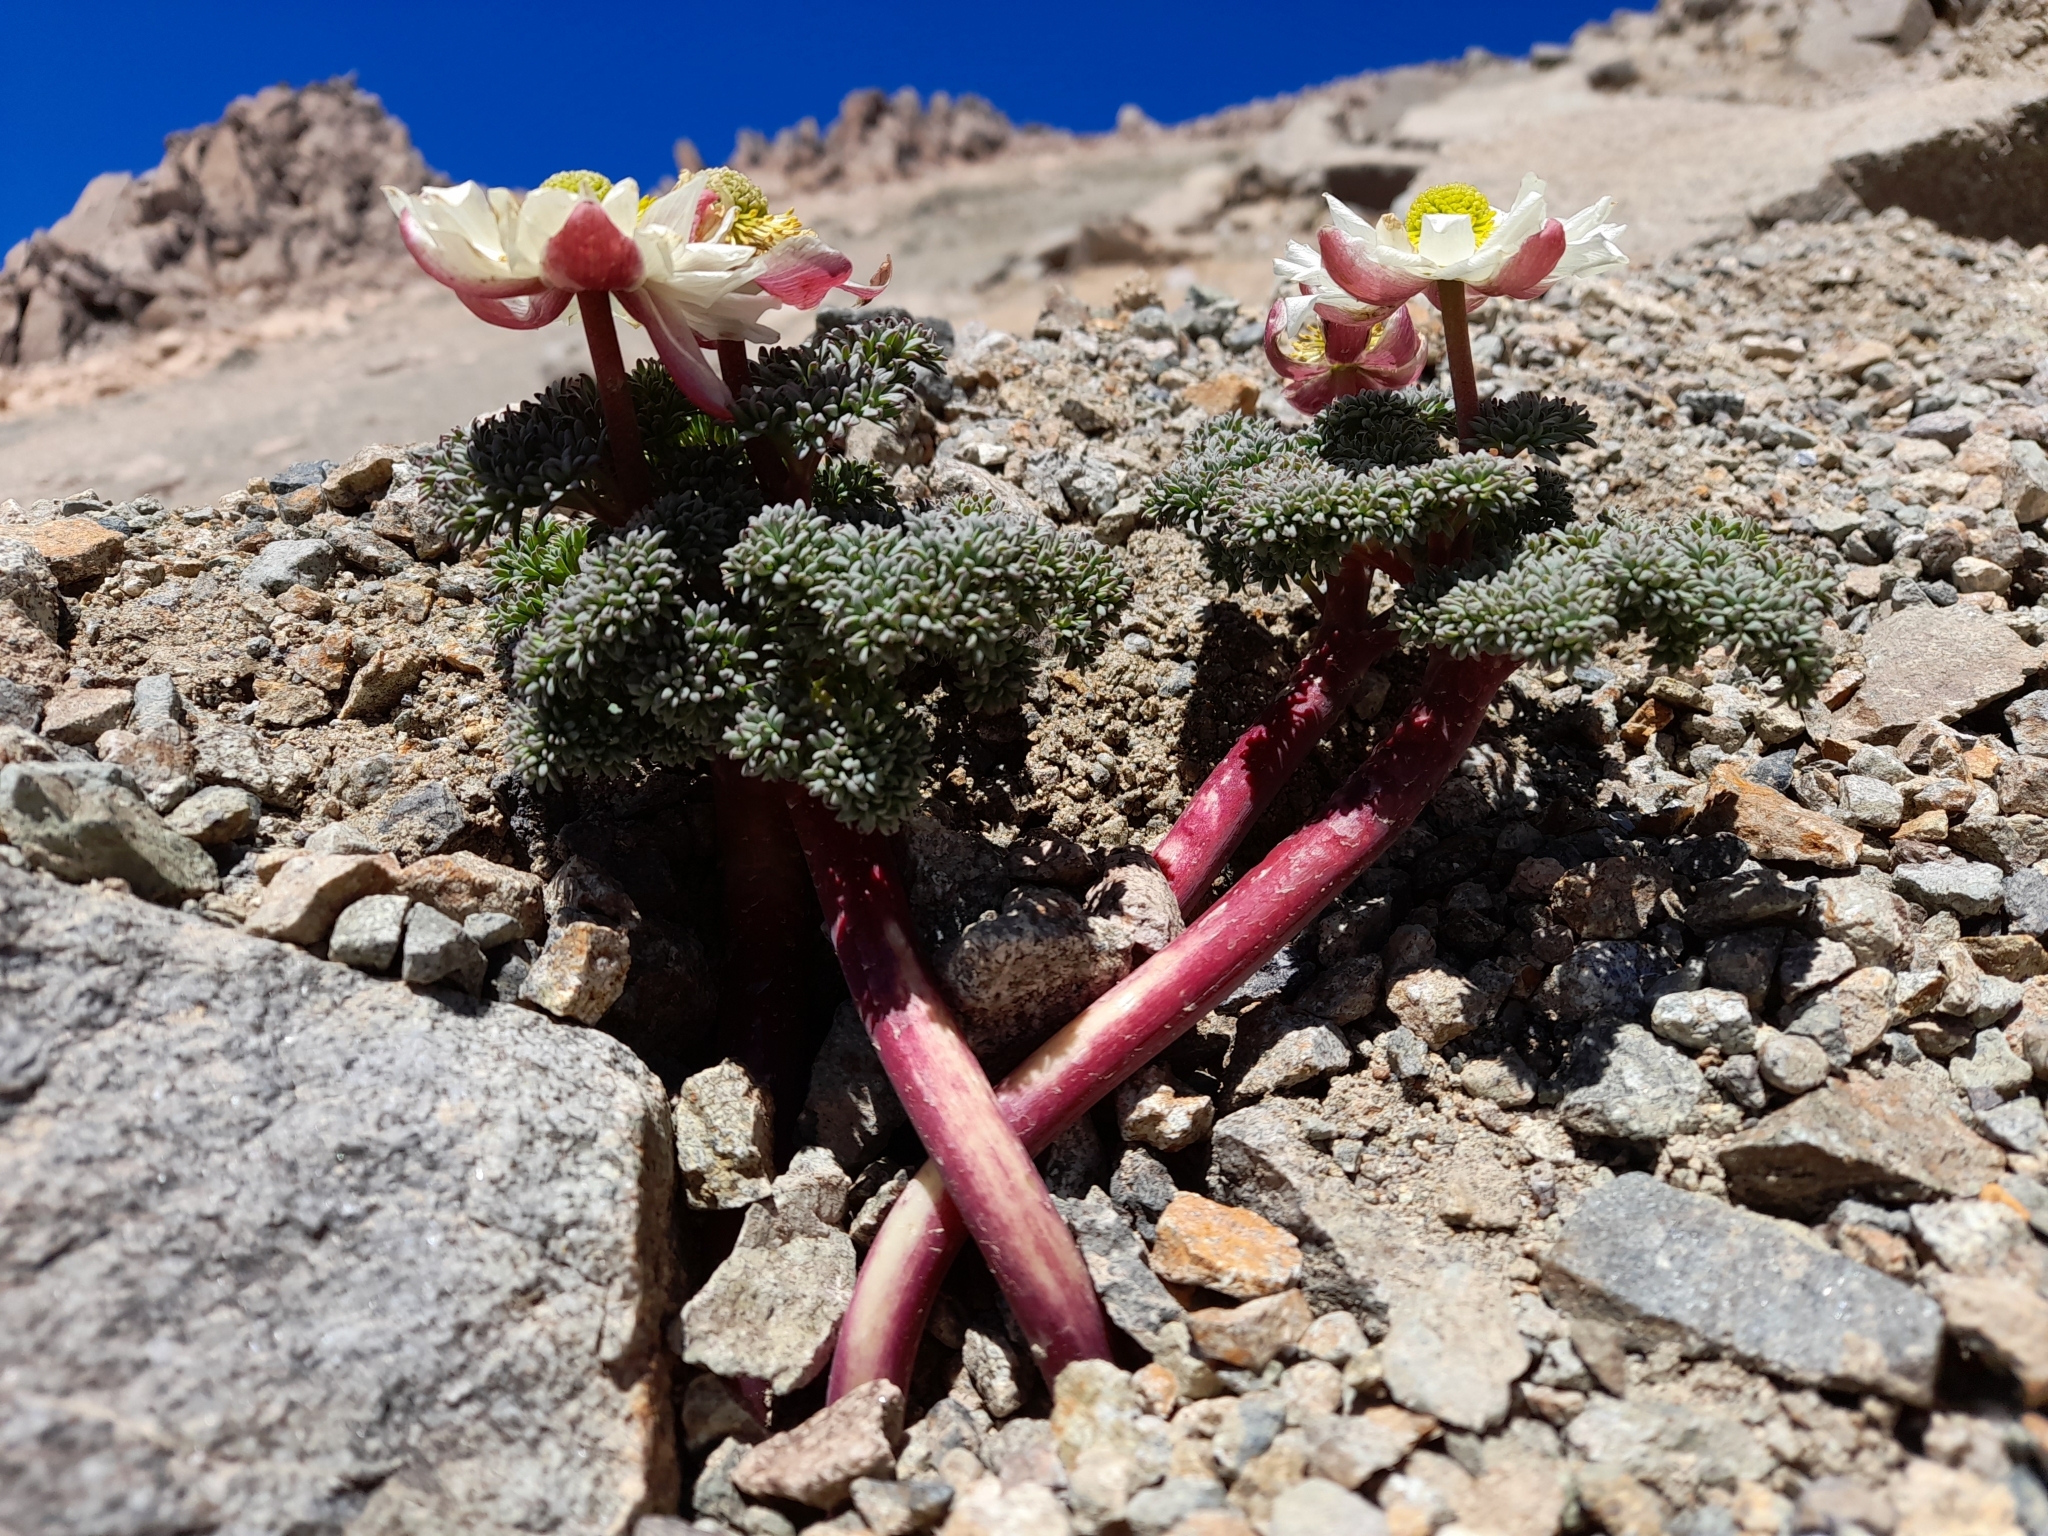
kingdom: Plantae
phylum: Tracheophyta
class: Magnoliopsida
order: Ranunculales
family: Ranunculaceae
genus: Callianthemoides
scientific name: Callianthemoides semiverticillatus
